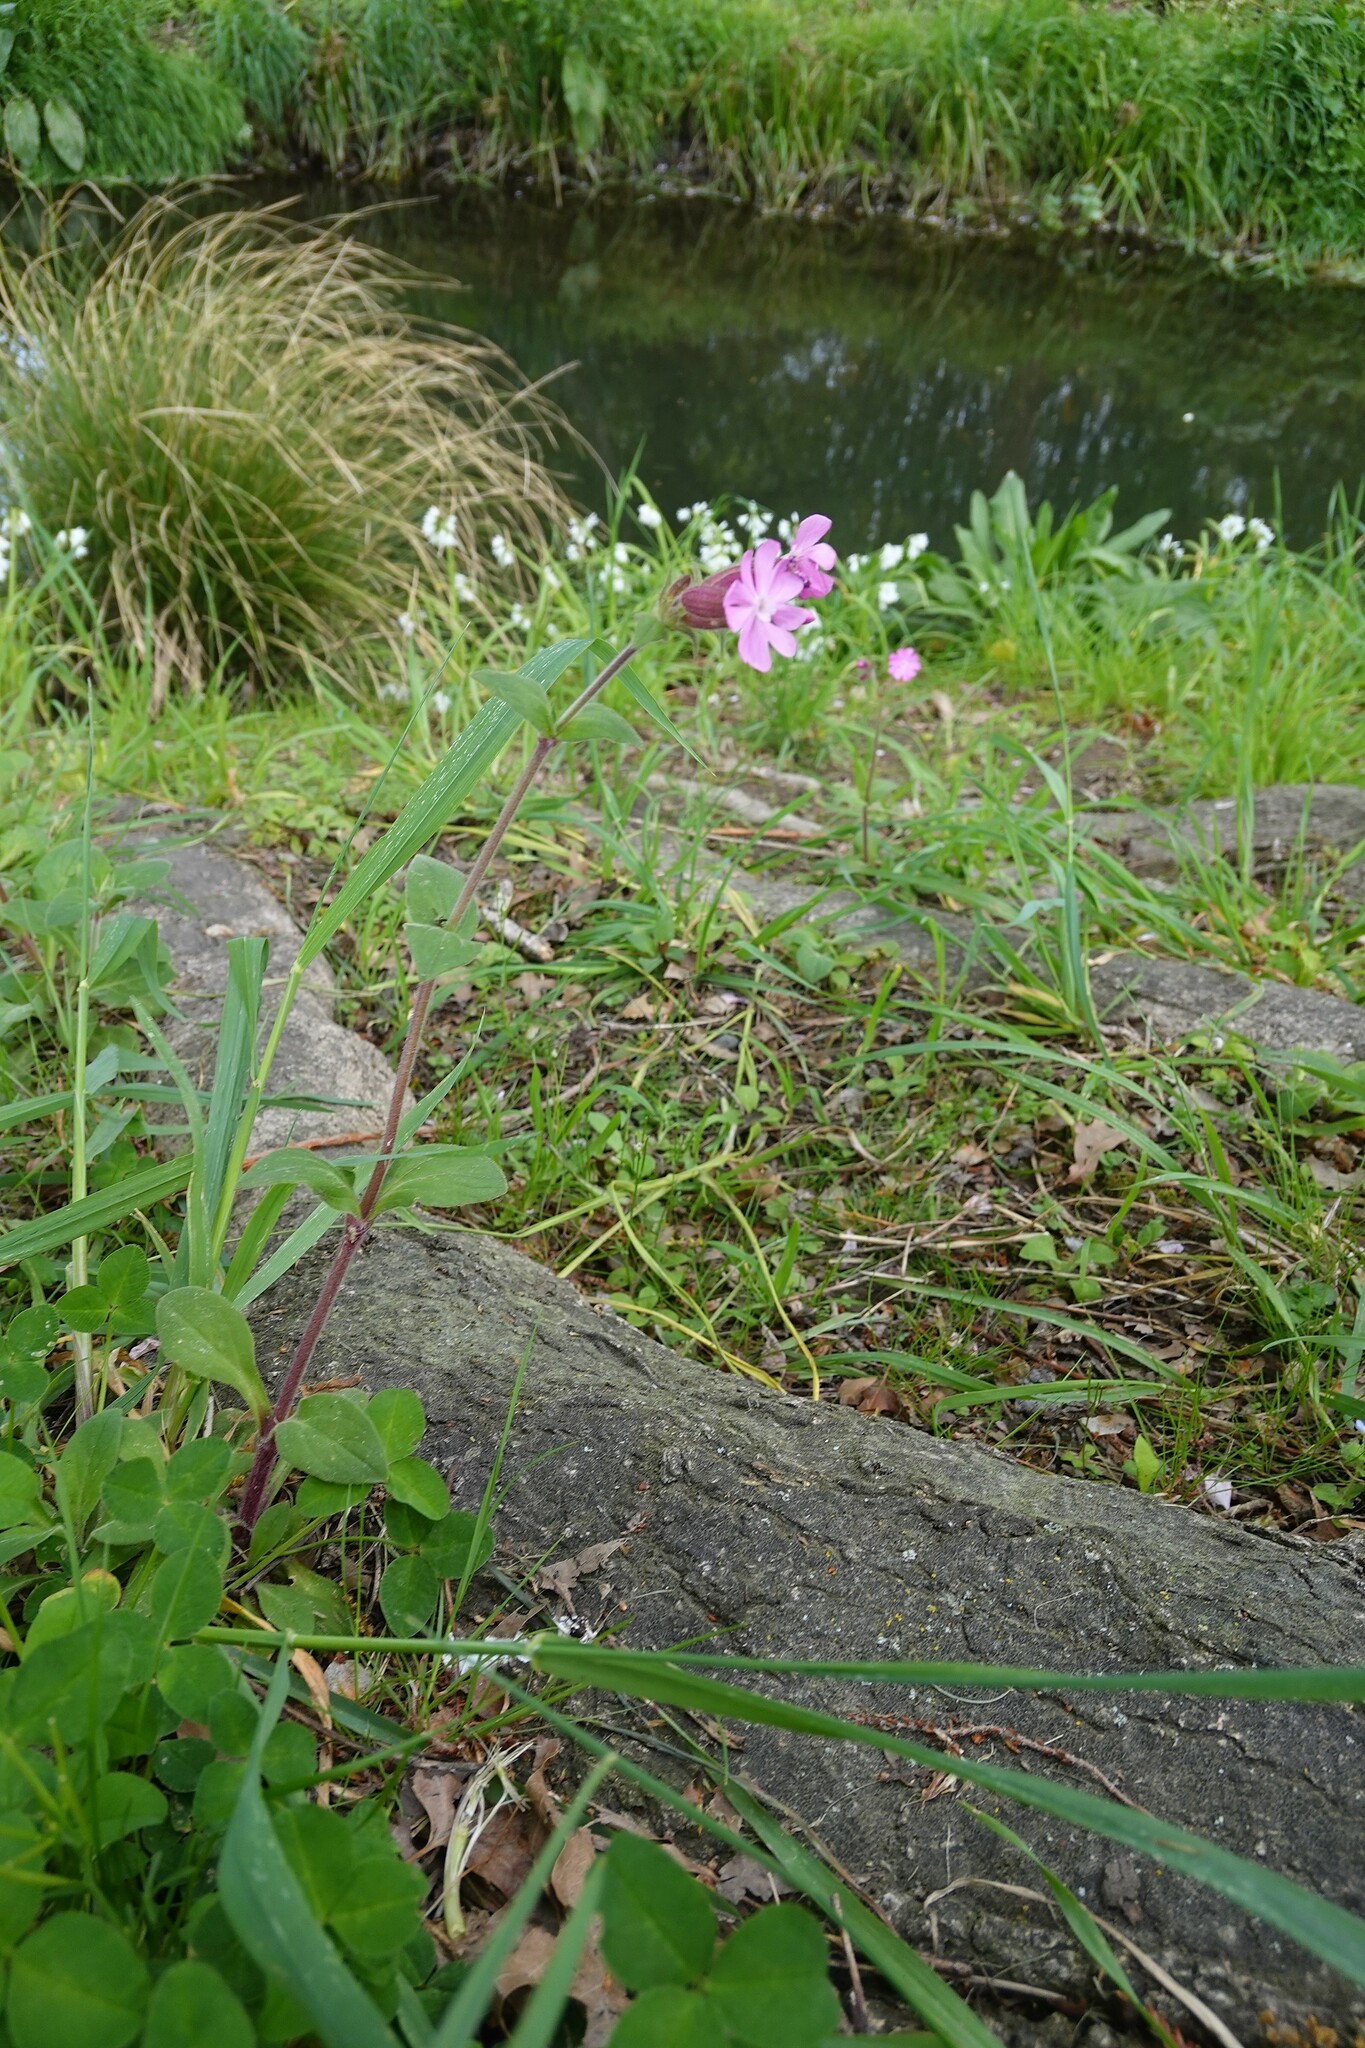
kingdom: Plantae
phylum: Tracheophyta
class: Magnoliopsida
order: Caryophyllales
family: Caryophyllaceae
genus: Silene
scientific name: Silene dioica
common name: Red campion
